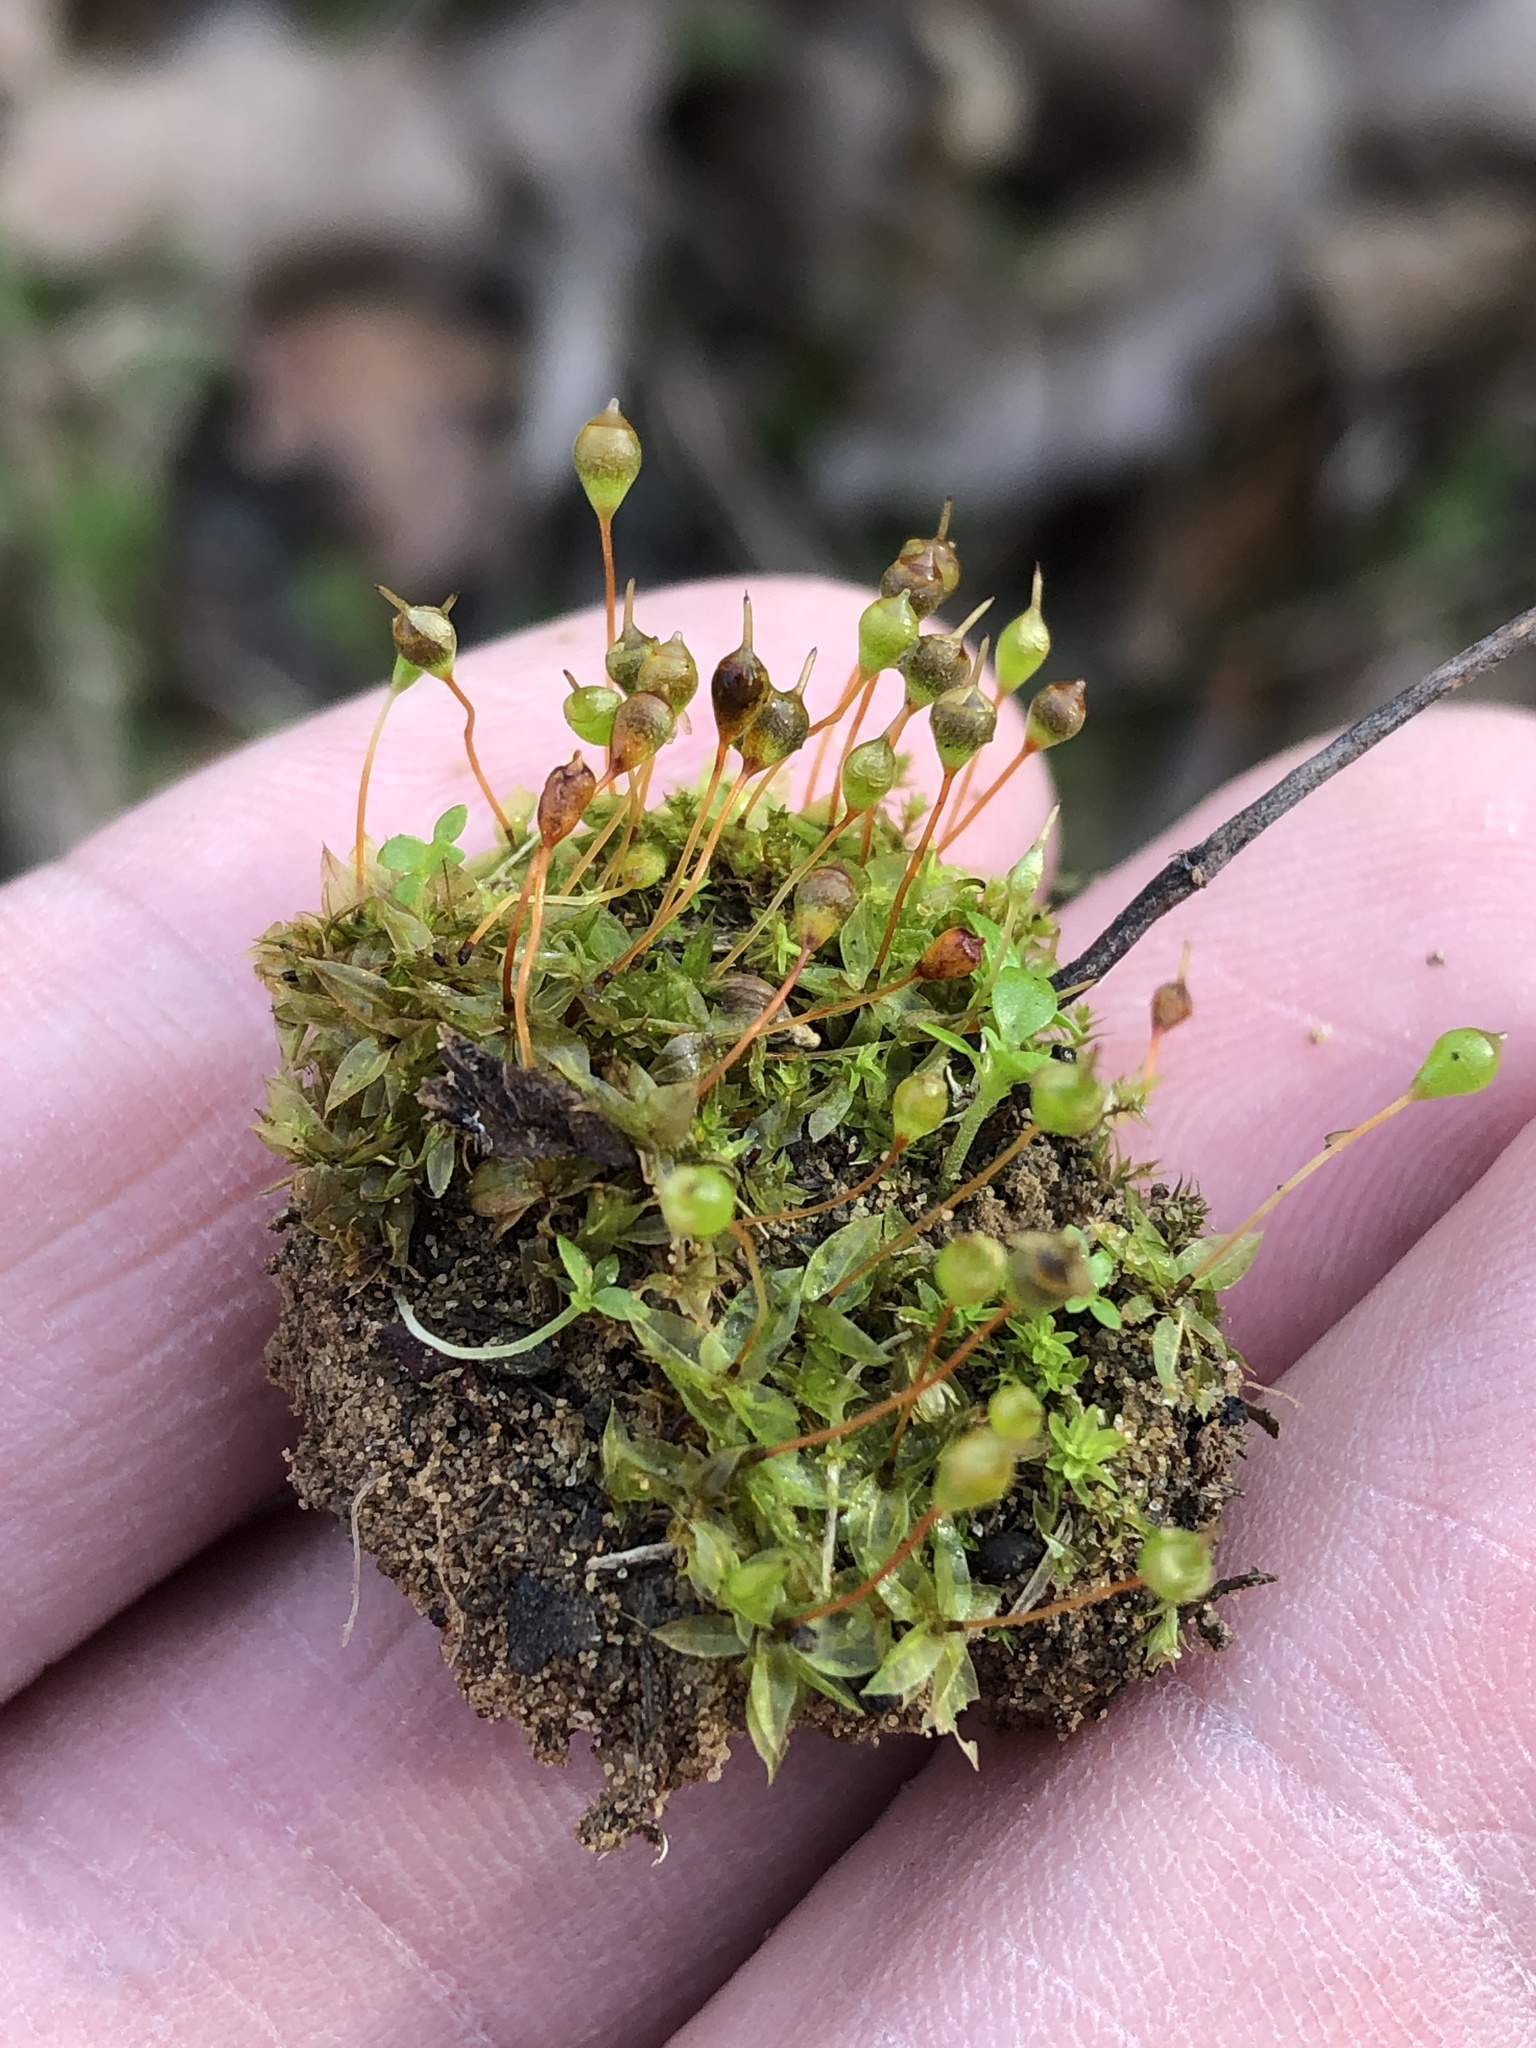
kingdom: Plantae
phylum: Bryophyta
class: Bryopsida
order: Funariales
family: Funariaceae
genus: Physcomitrium
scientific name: Physcomitrium pyriforme
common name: Common bladder-moss
